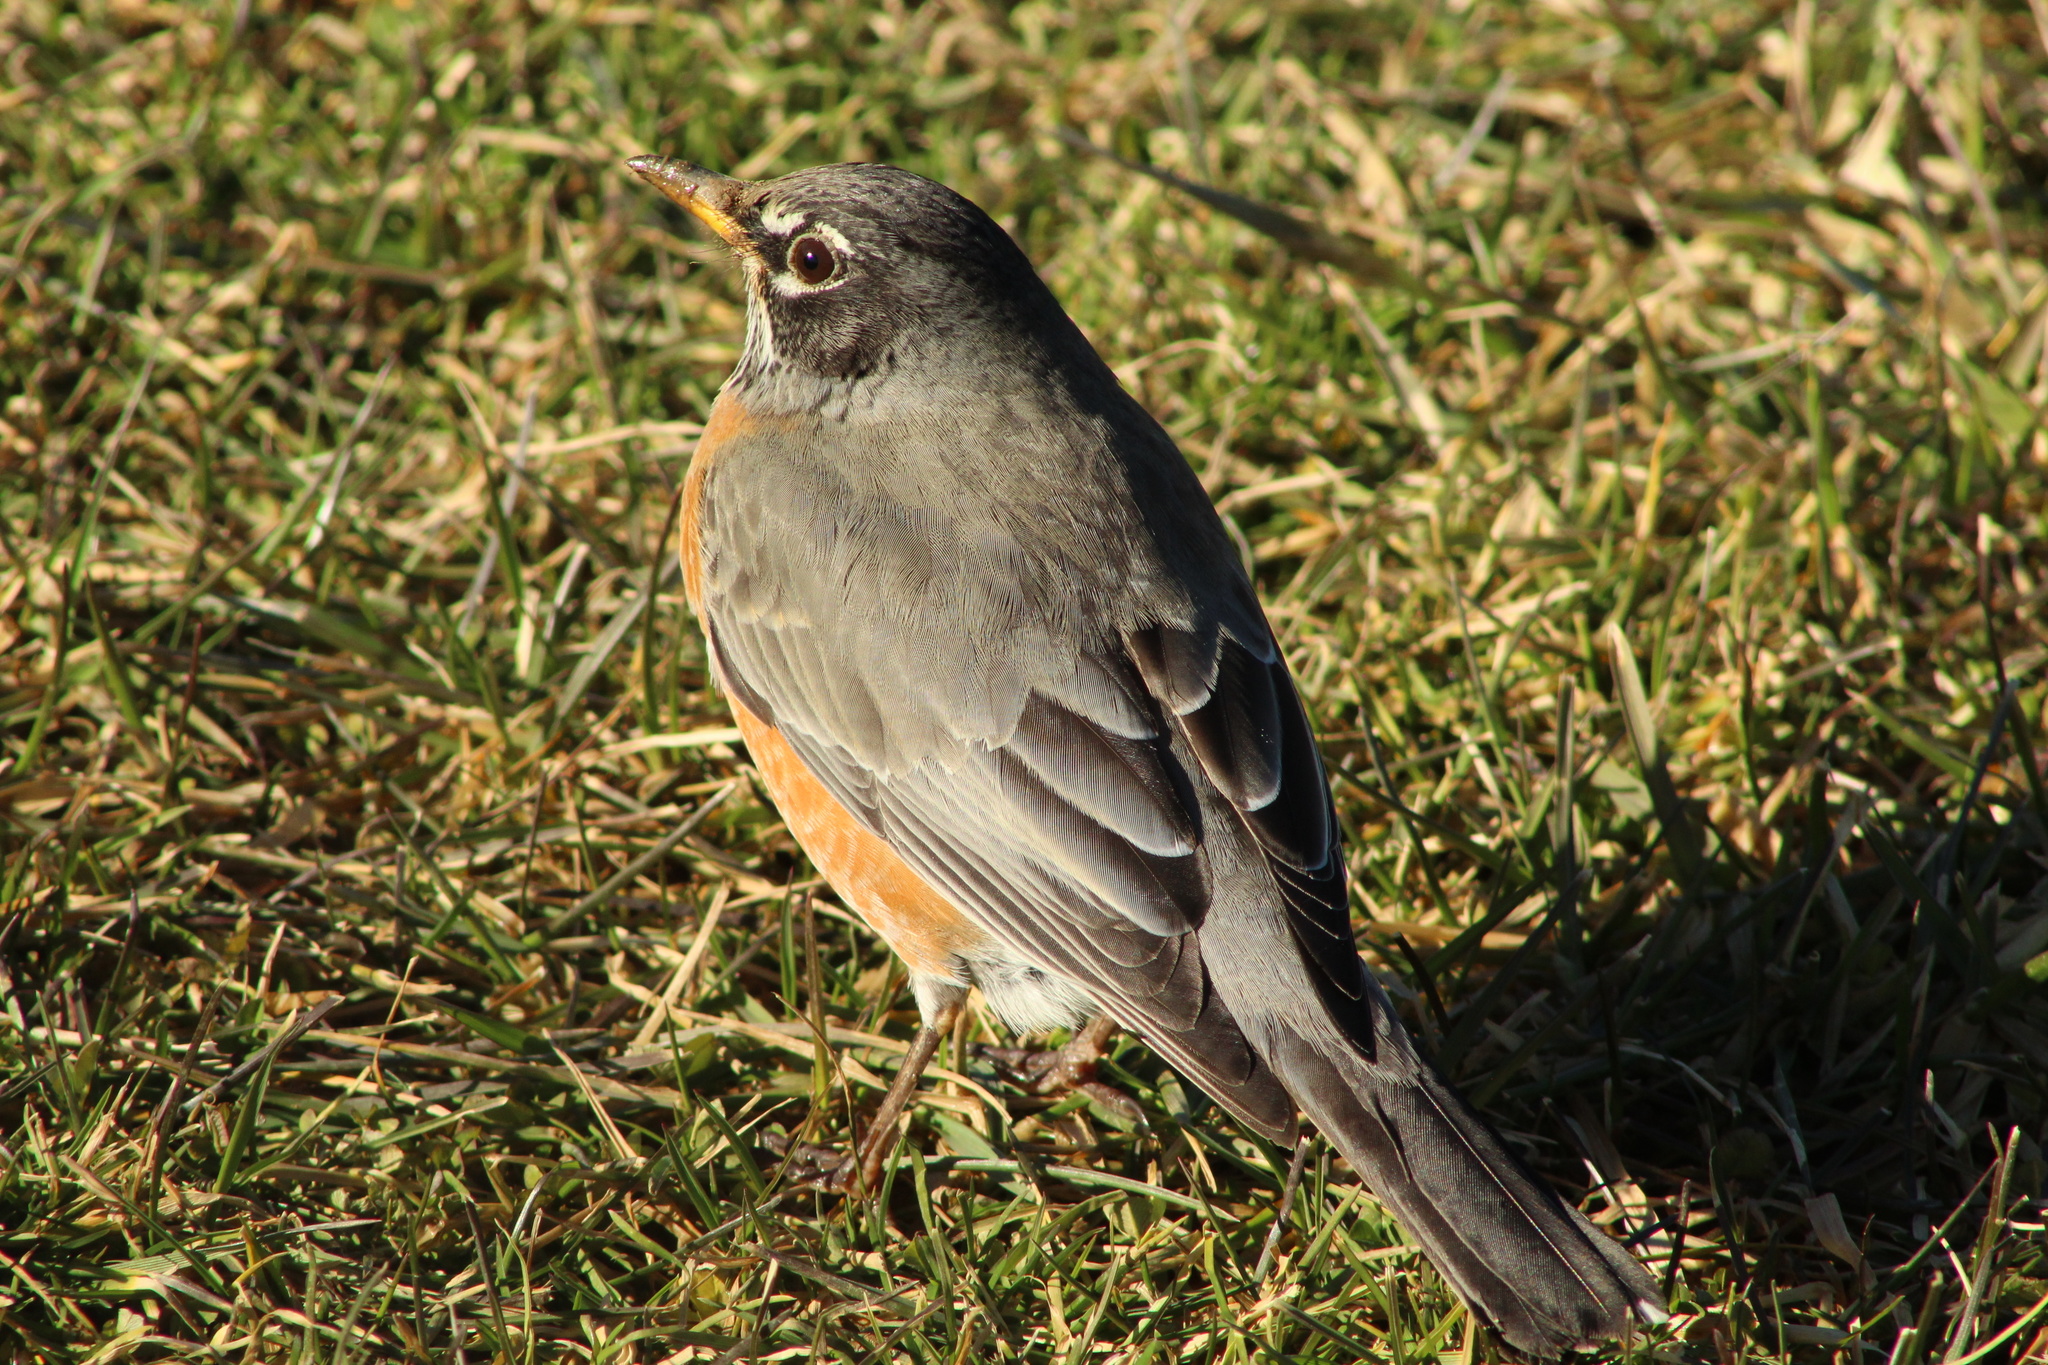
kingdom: Animalia
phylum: Chordata
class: Aves
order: Passeriformes
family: Turdidae
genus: Turdus
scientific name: Turdus migratorius
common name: American robin
